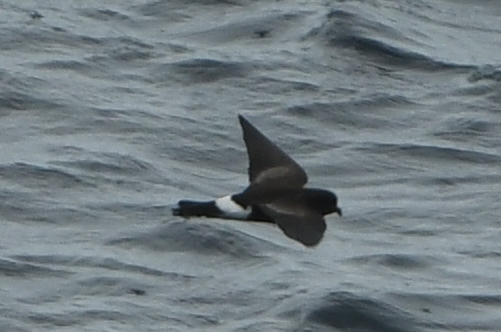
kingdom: Animalia
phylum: Chordata
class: Aves
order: Procellariiformes
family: Hydrobatidae
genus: Oceanites
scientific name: Oceanites oceanicus
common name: Wilson's storm petrel
